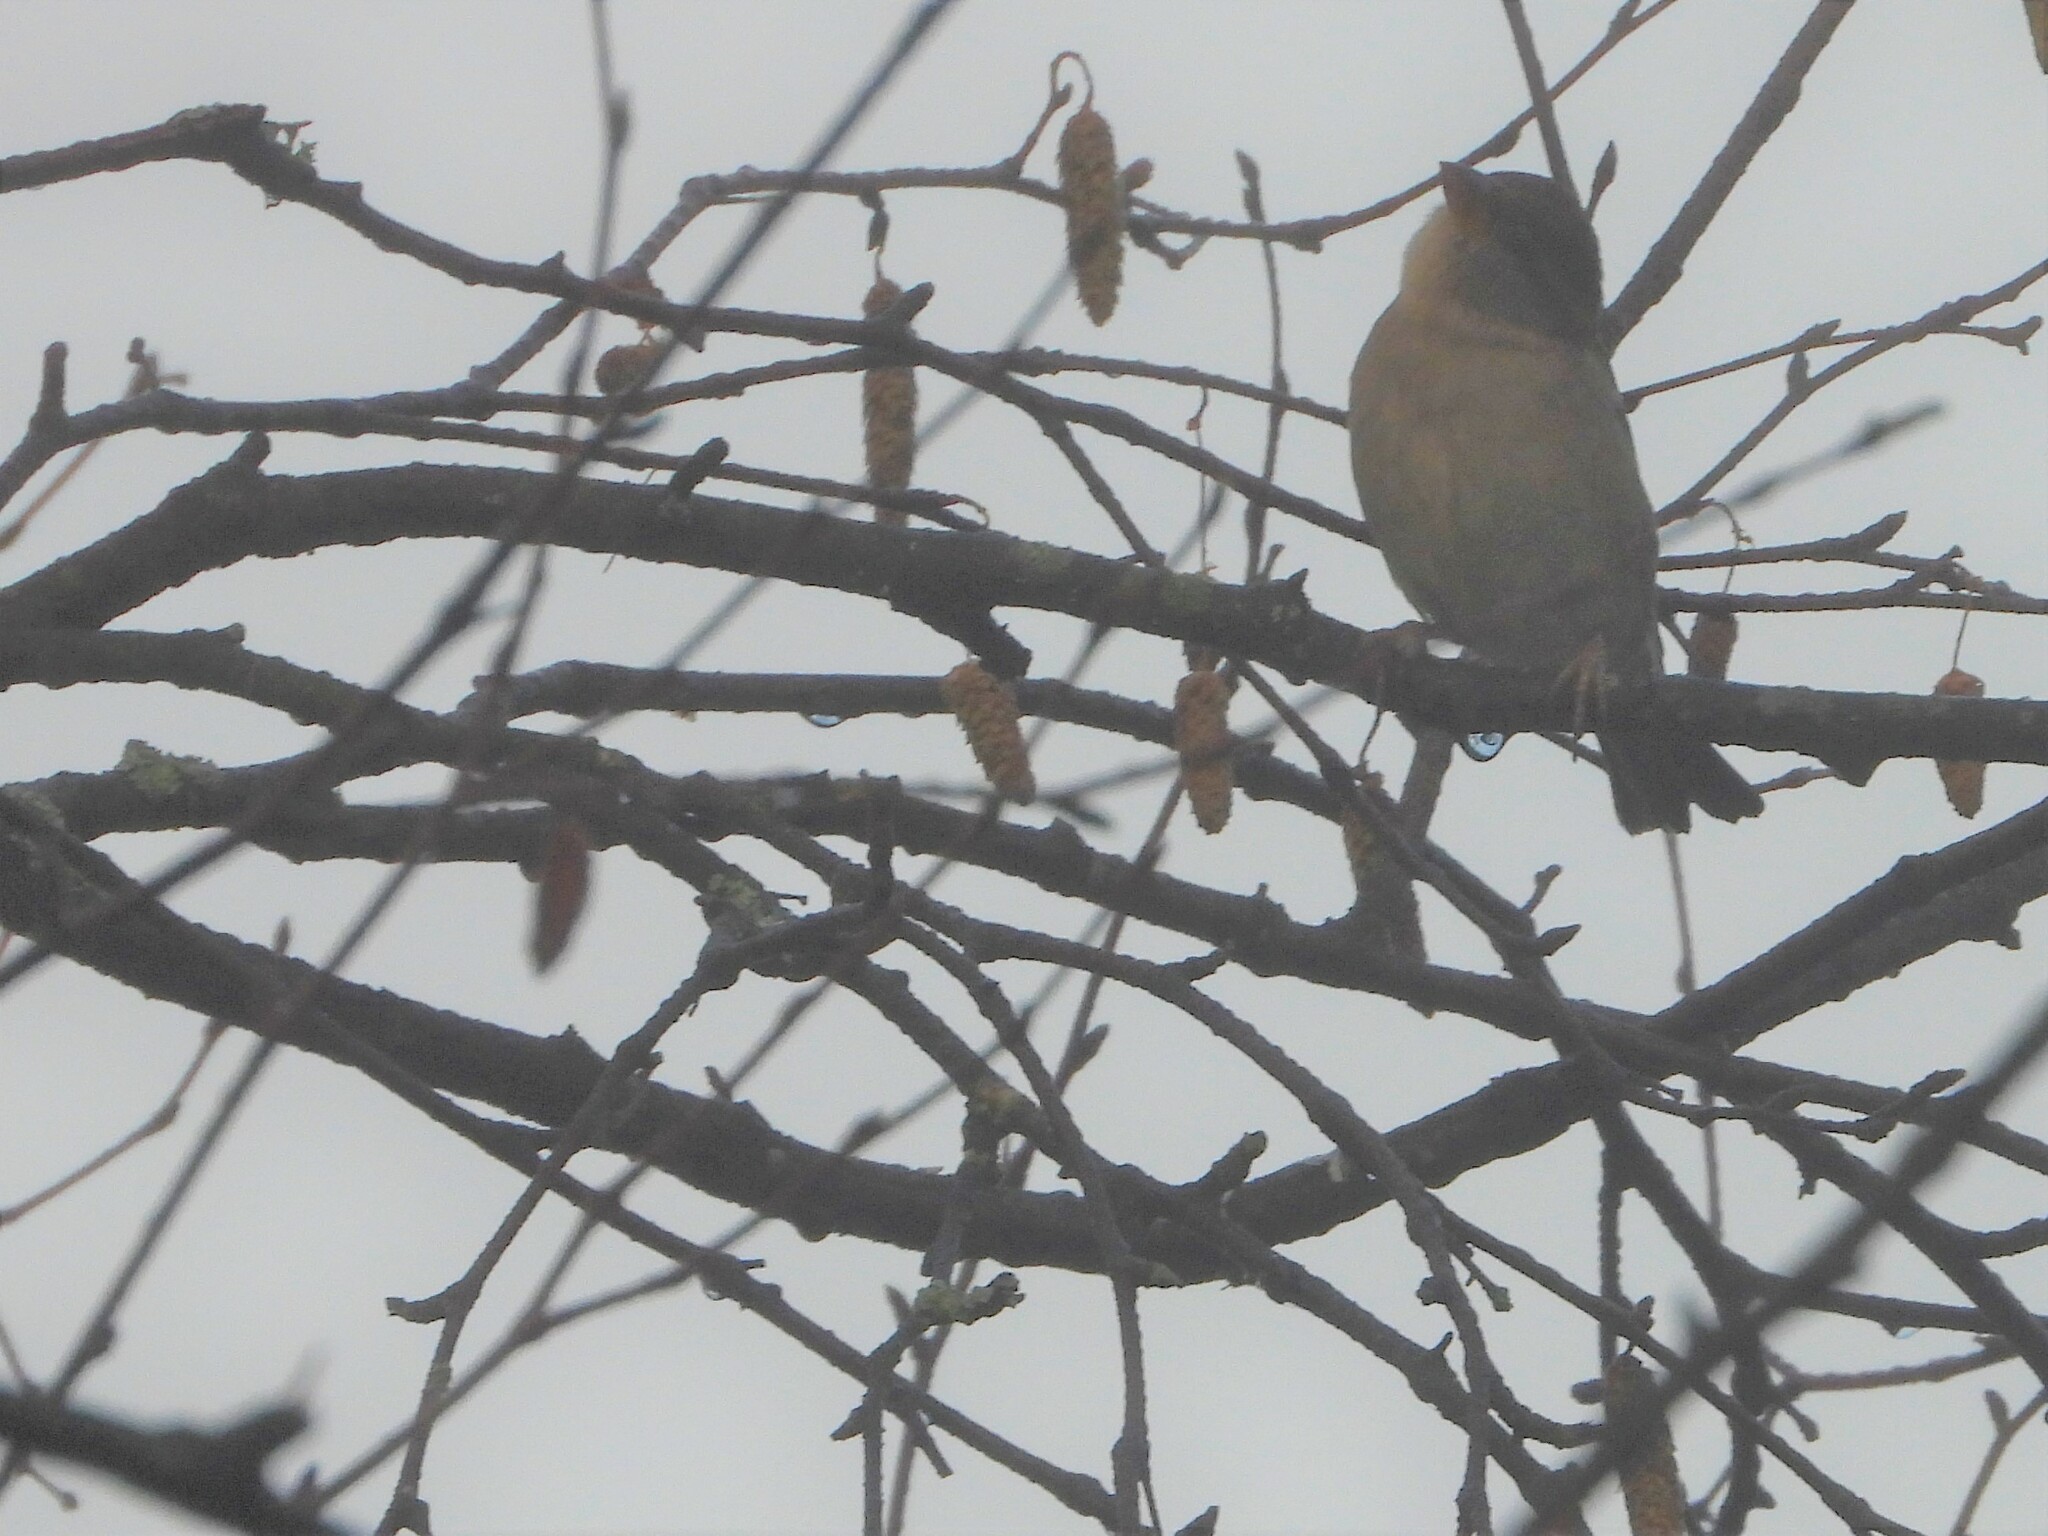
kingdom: Animalia
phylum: Chordata
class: Aves
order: Passeriformes
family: Passeridae
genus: Passer
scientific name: Passer domesticus
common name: House sparrow
